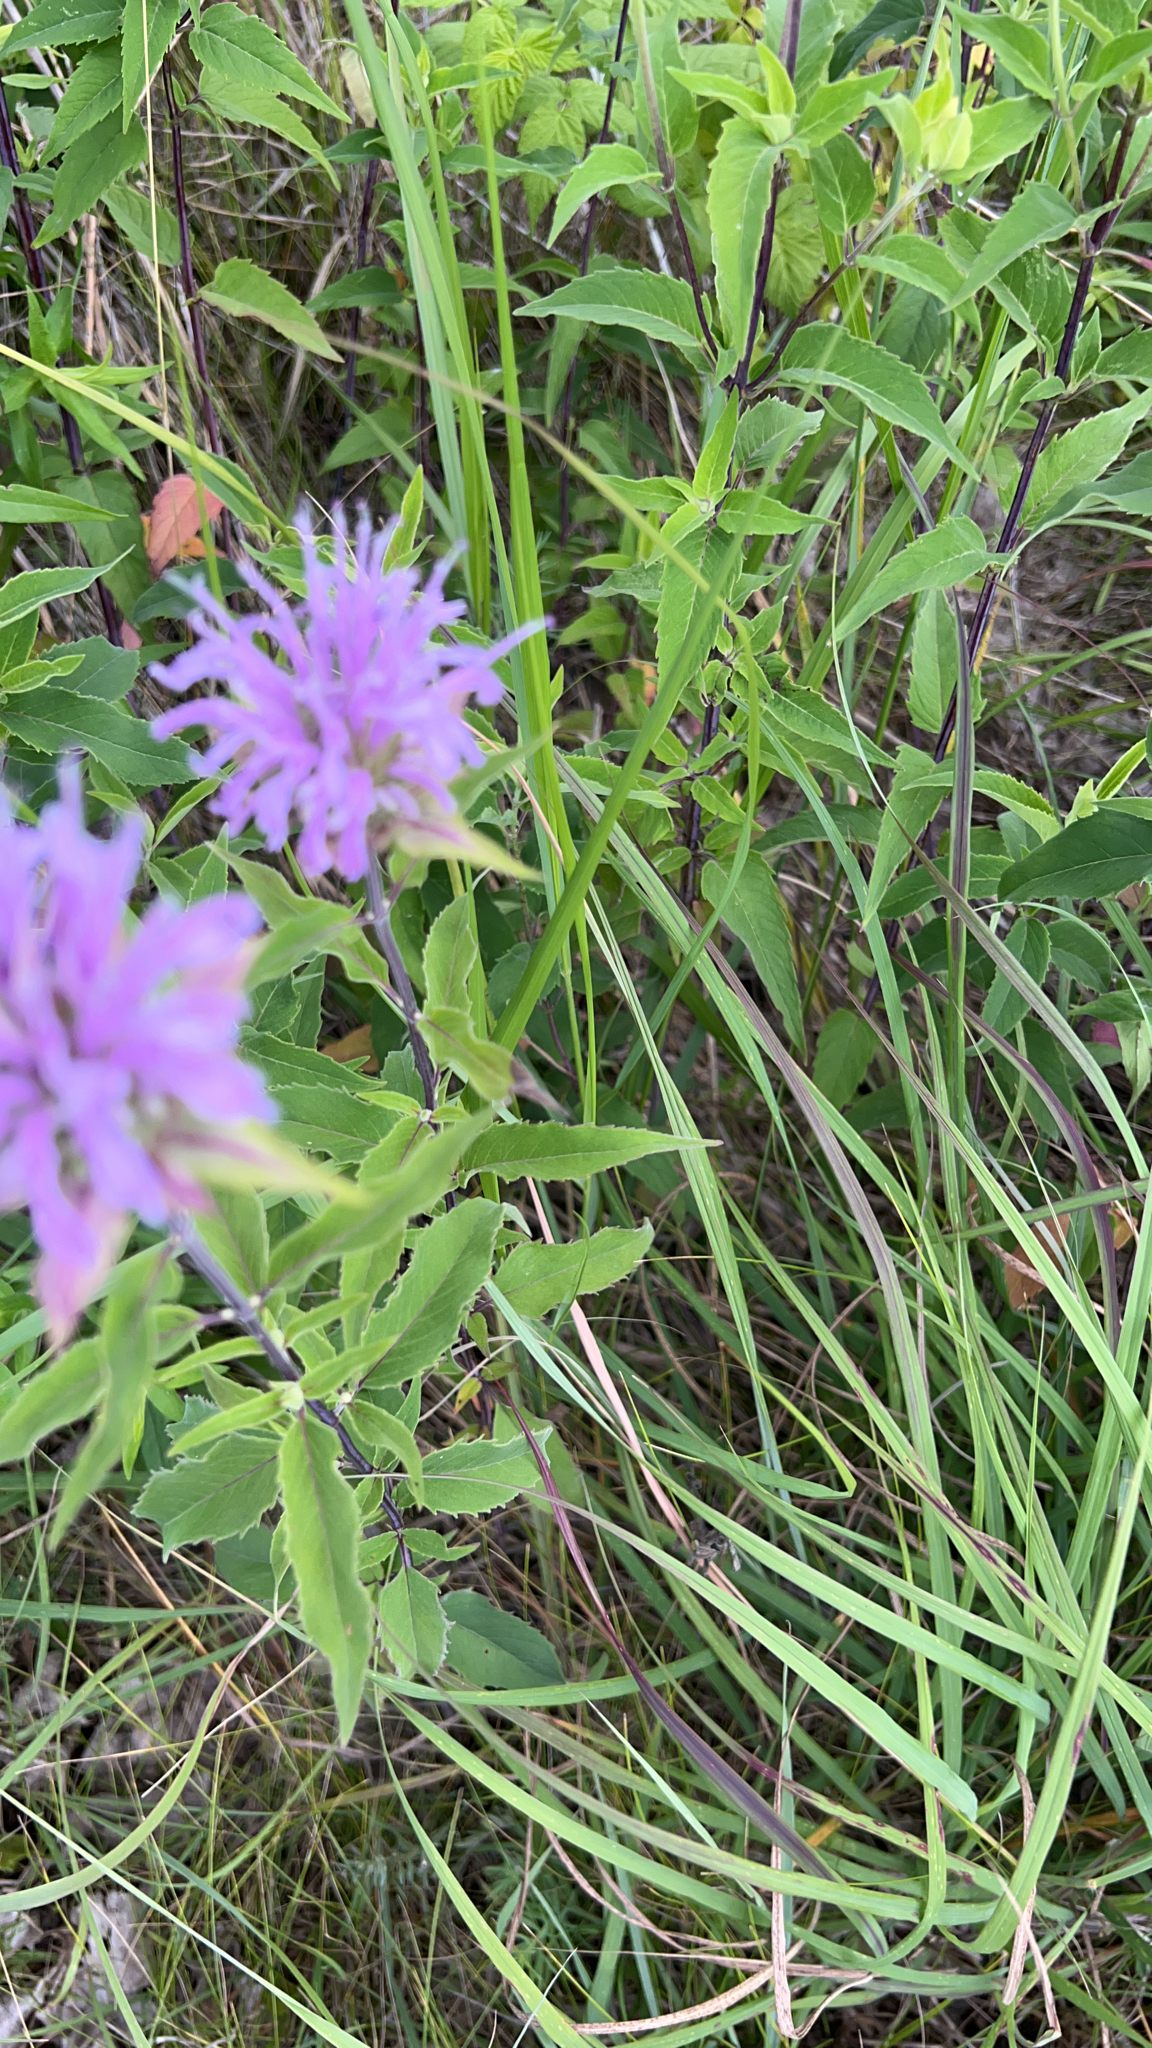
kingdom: Plantae
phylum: Tracheophyta
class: Magnoliopsida
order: Lamiales
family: Lamiaceae
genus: Monarda
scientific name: Monarda fistulosa
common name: Purple beebalm
